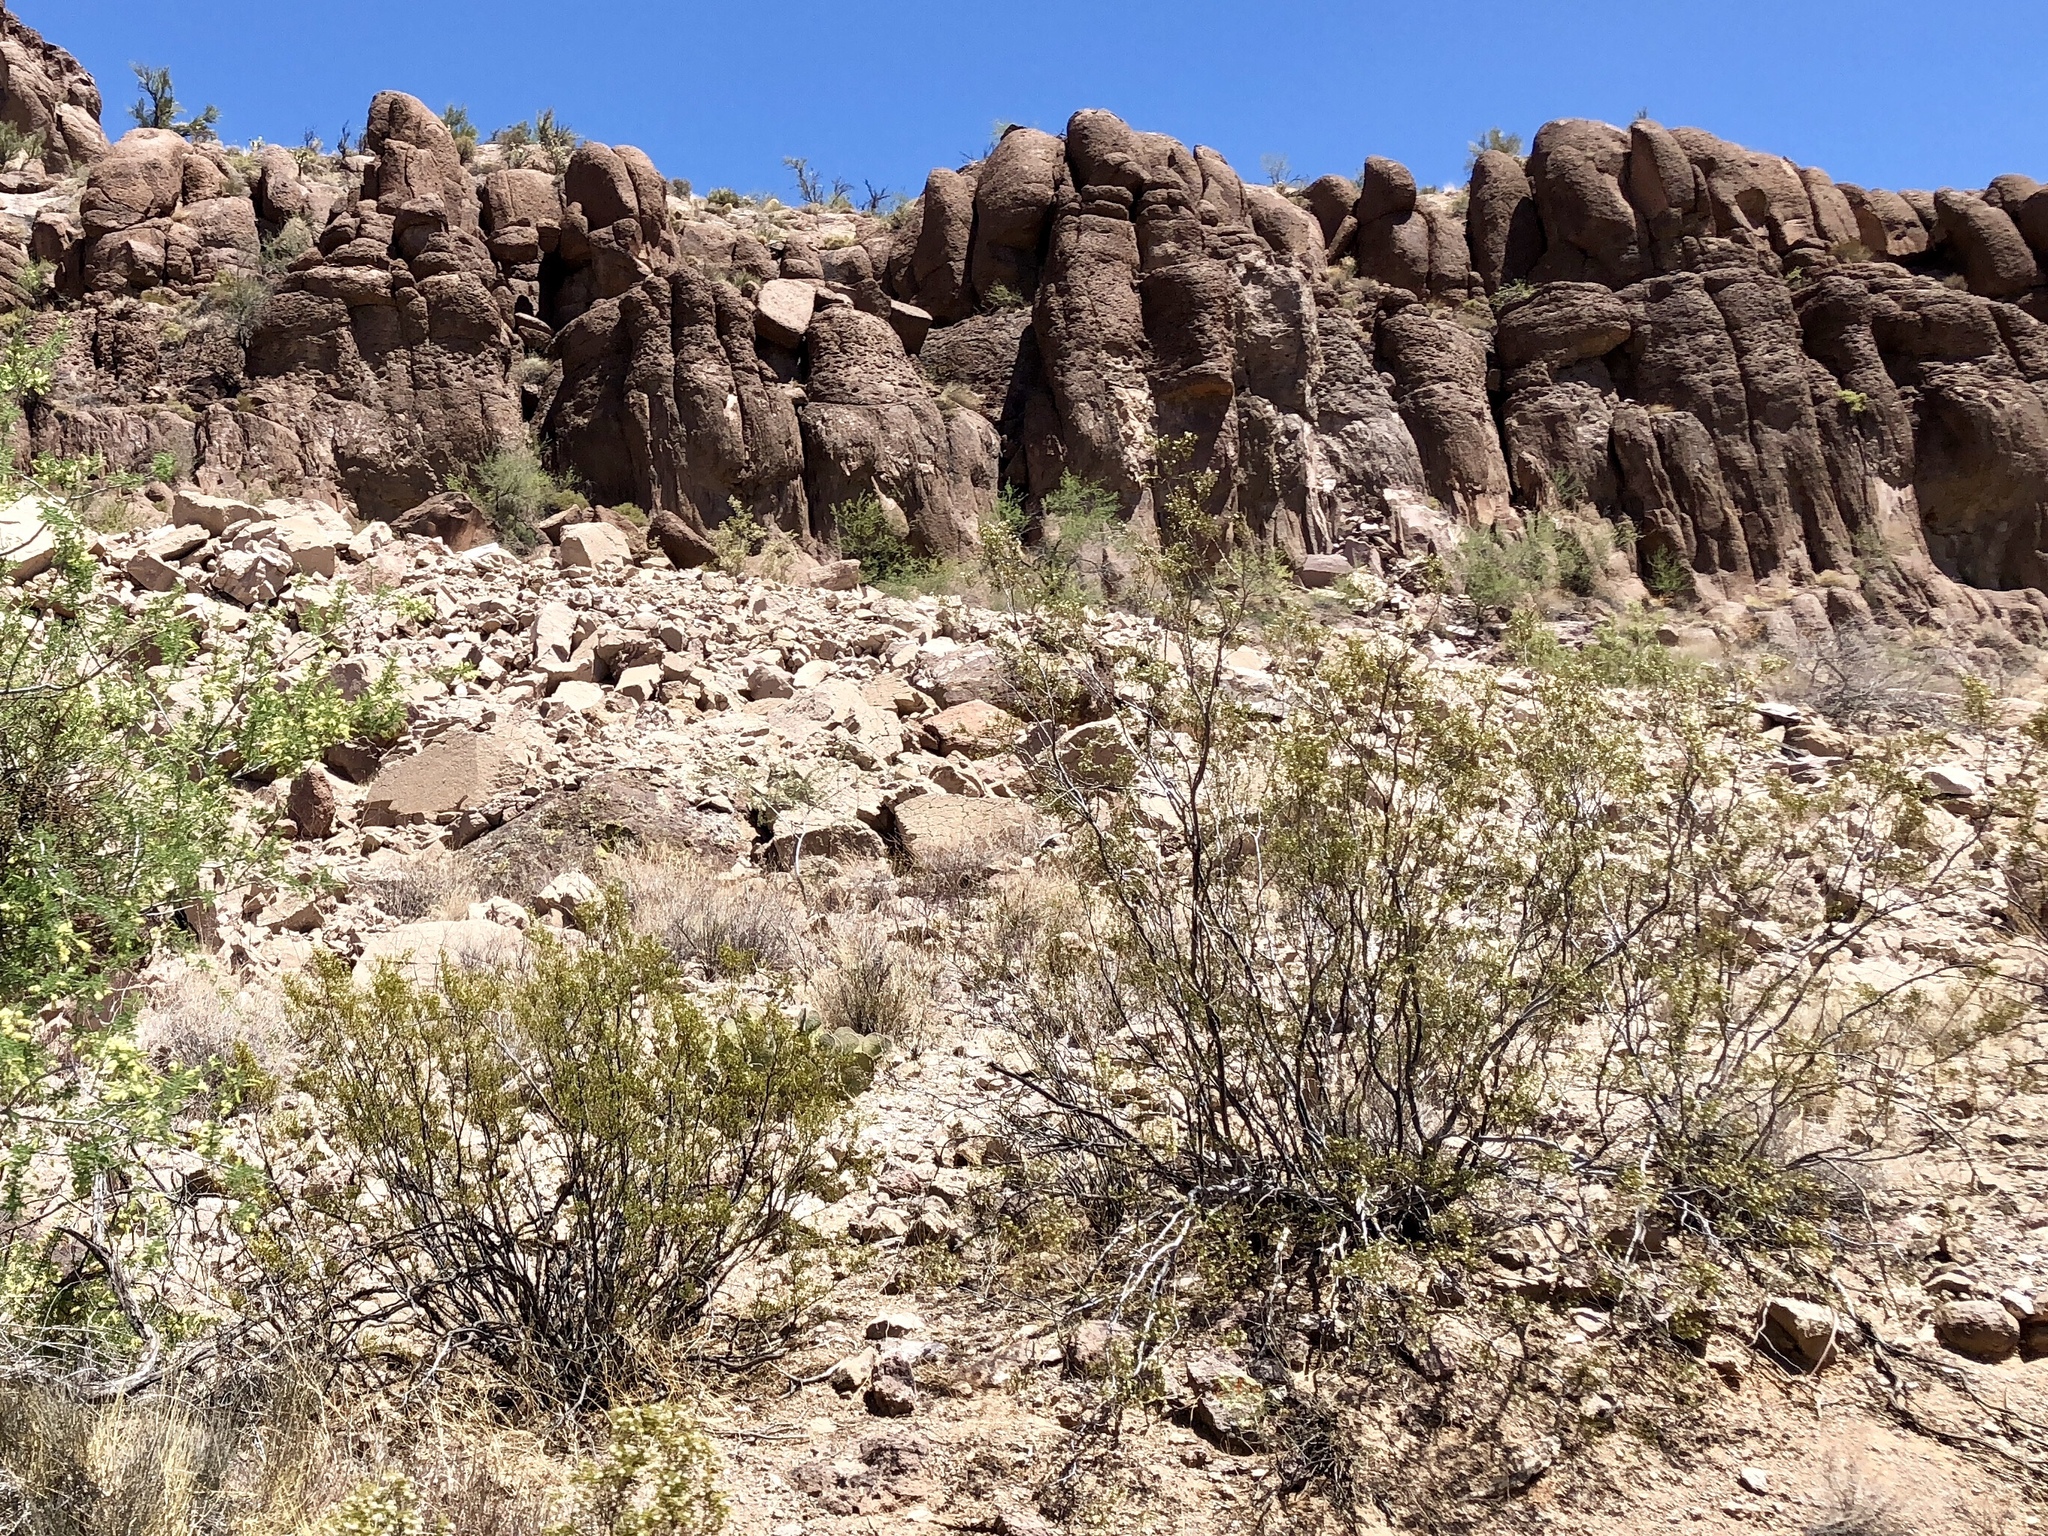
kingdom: Plantae
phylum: Tracheophyta
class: Magnoliopsida
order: Zygophyllales
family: Zygophyllaceae
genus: Larrea
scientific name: Larrea tridentata
